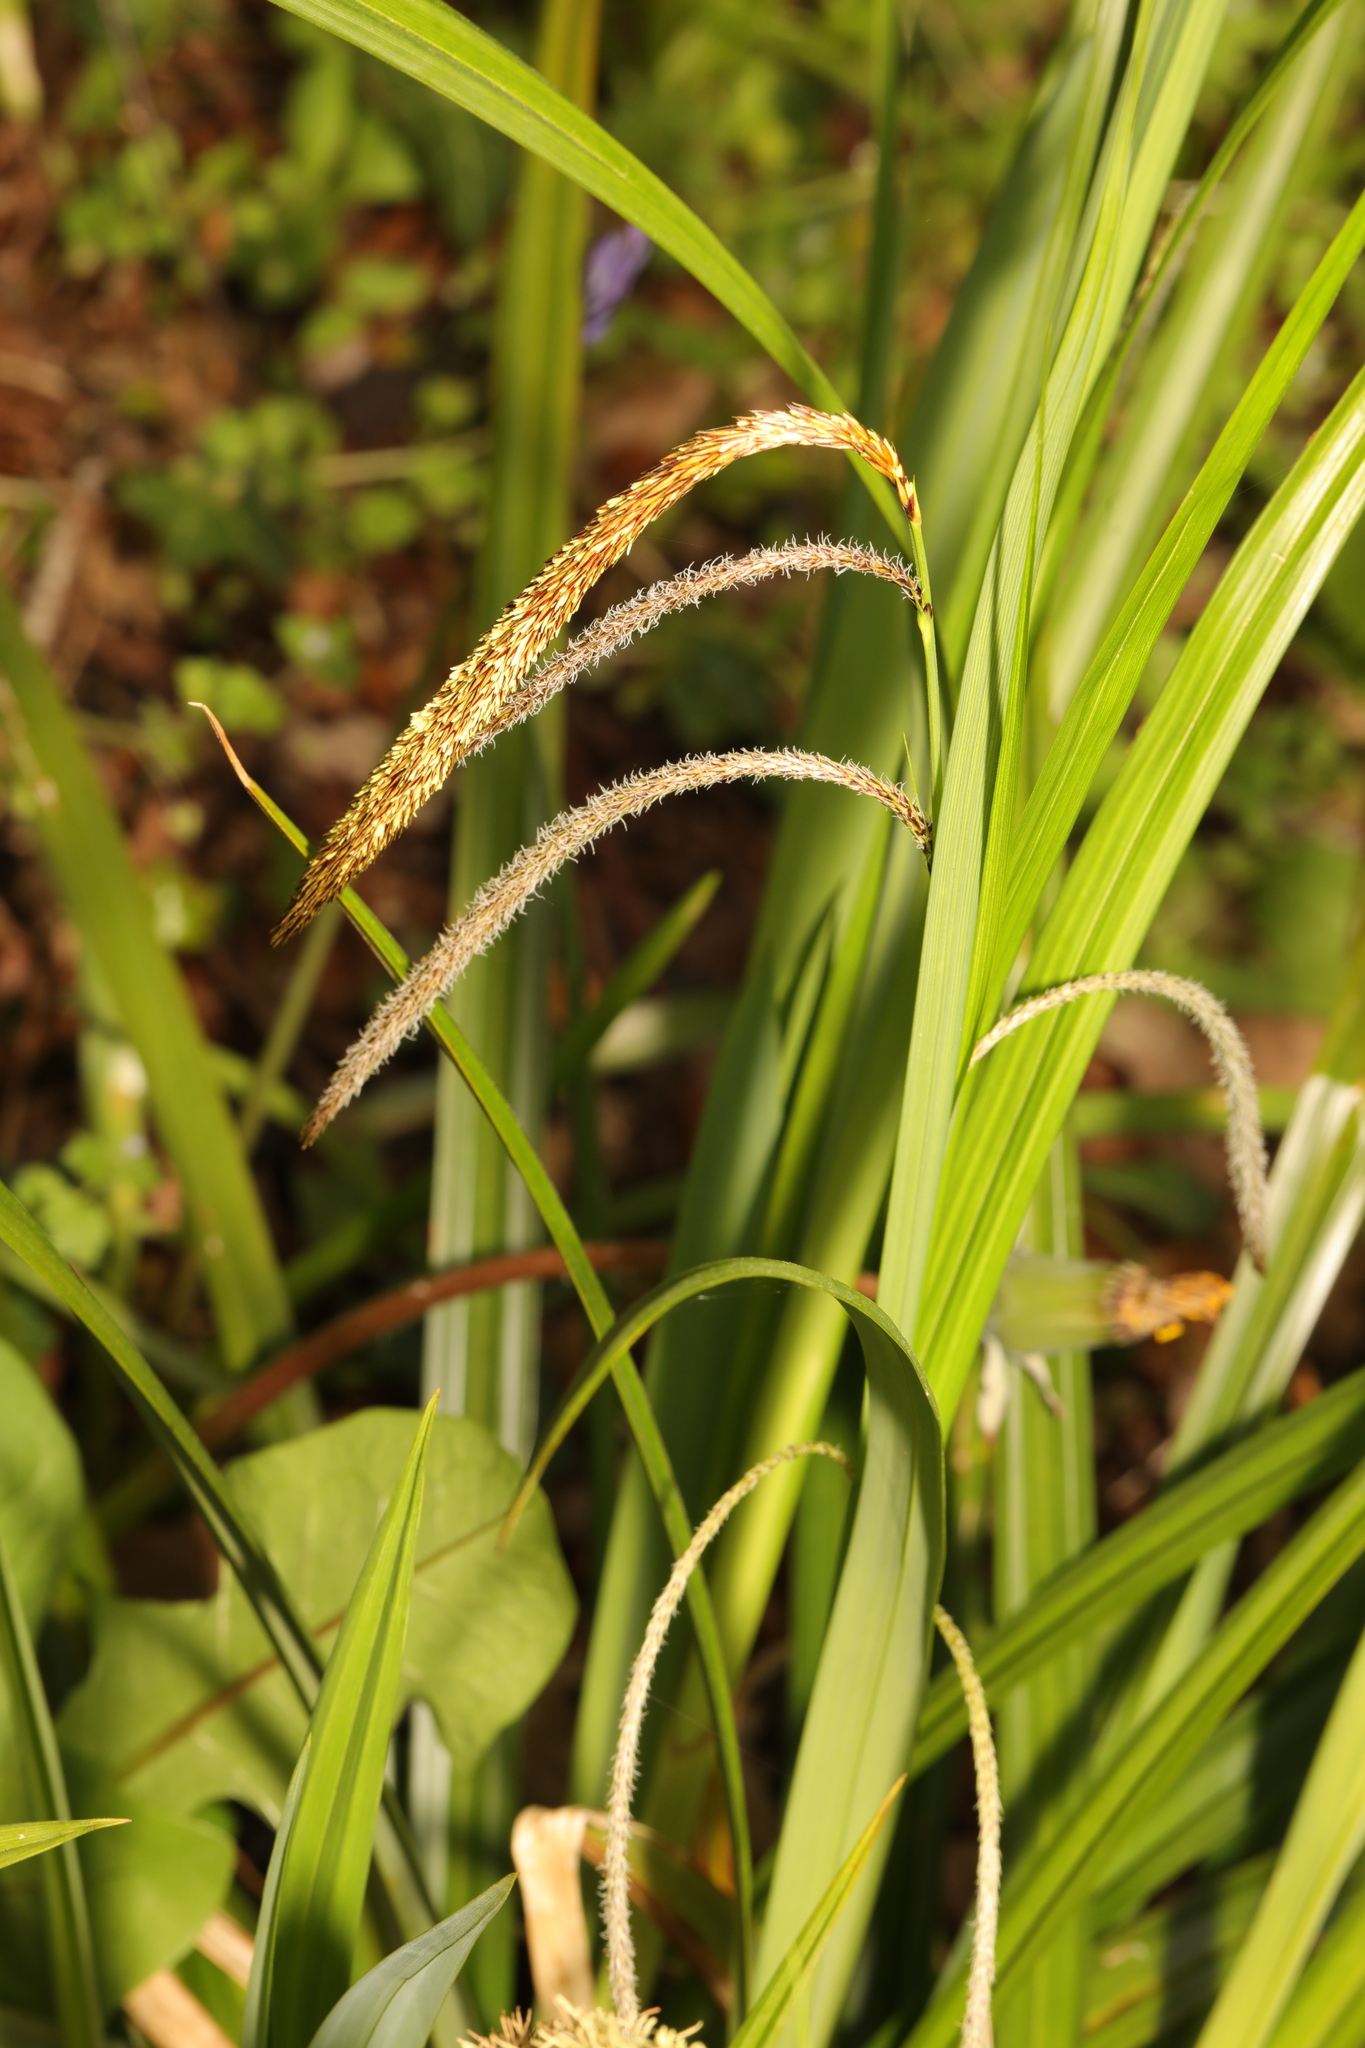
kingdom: Plantae
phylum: Tracheophyta
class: Liliopsida
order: Poales
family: Cyperaceae
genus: Carex
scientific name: Carex pendula
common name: Pendulous sedge
